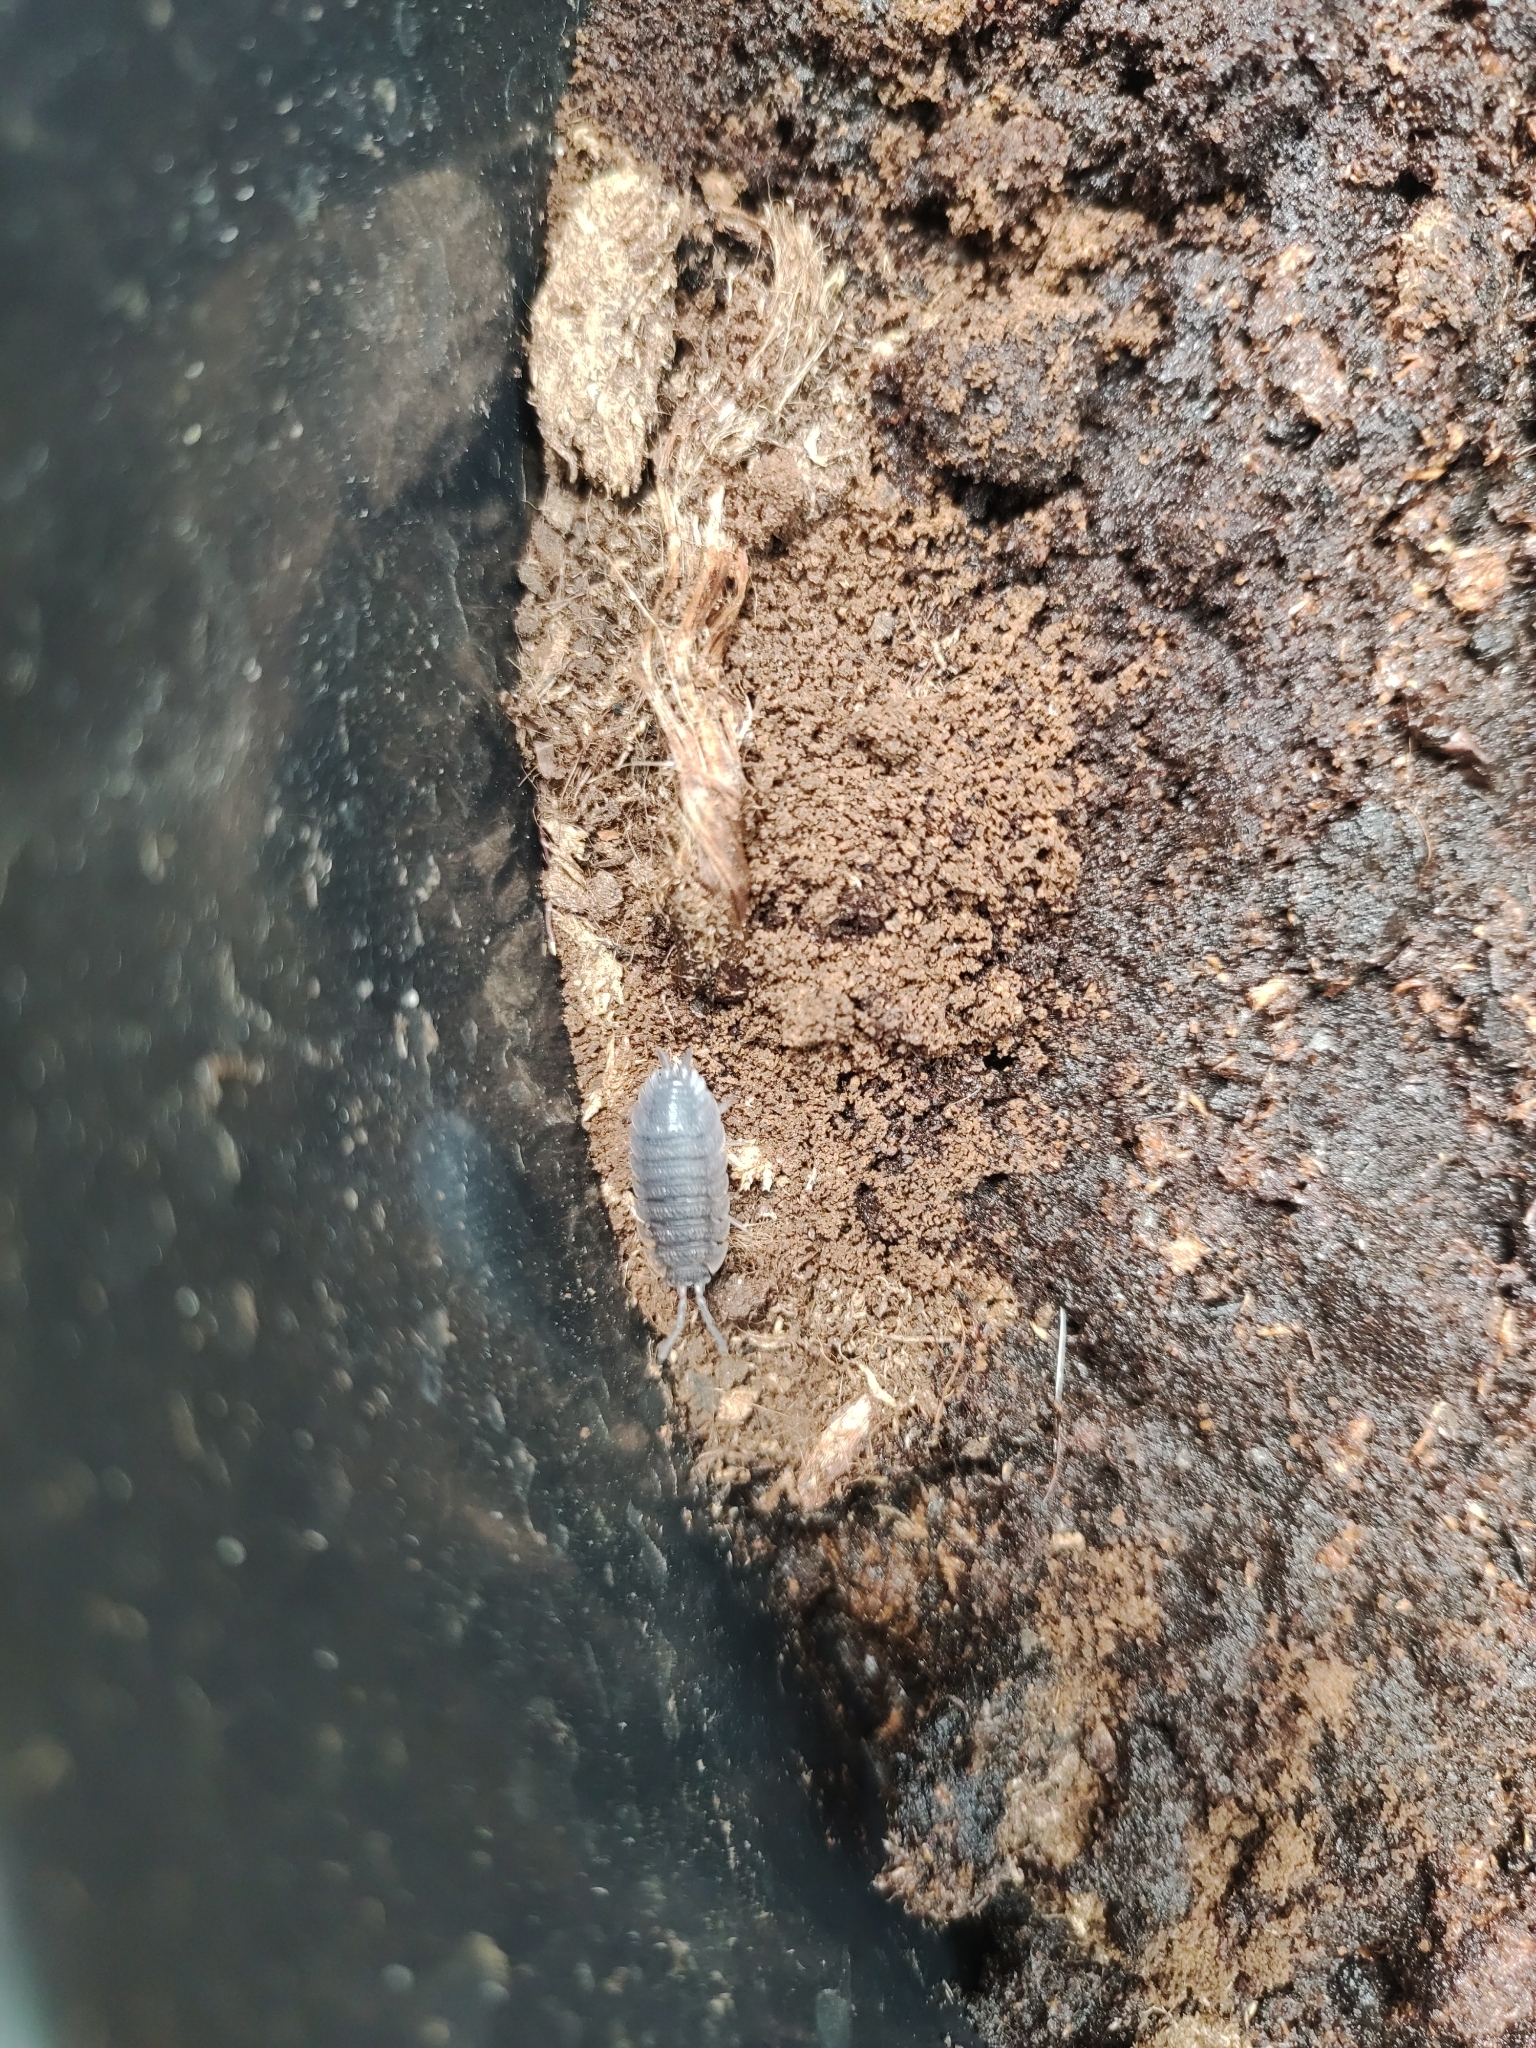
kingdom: Animalia
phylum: Arthropoda
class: Malacostraca
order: Isopoda
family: Porcellionidae
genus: Porcellio
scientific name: Porcellio scaber
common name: Common rough woodlouse
